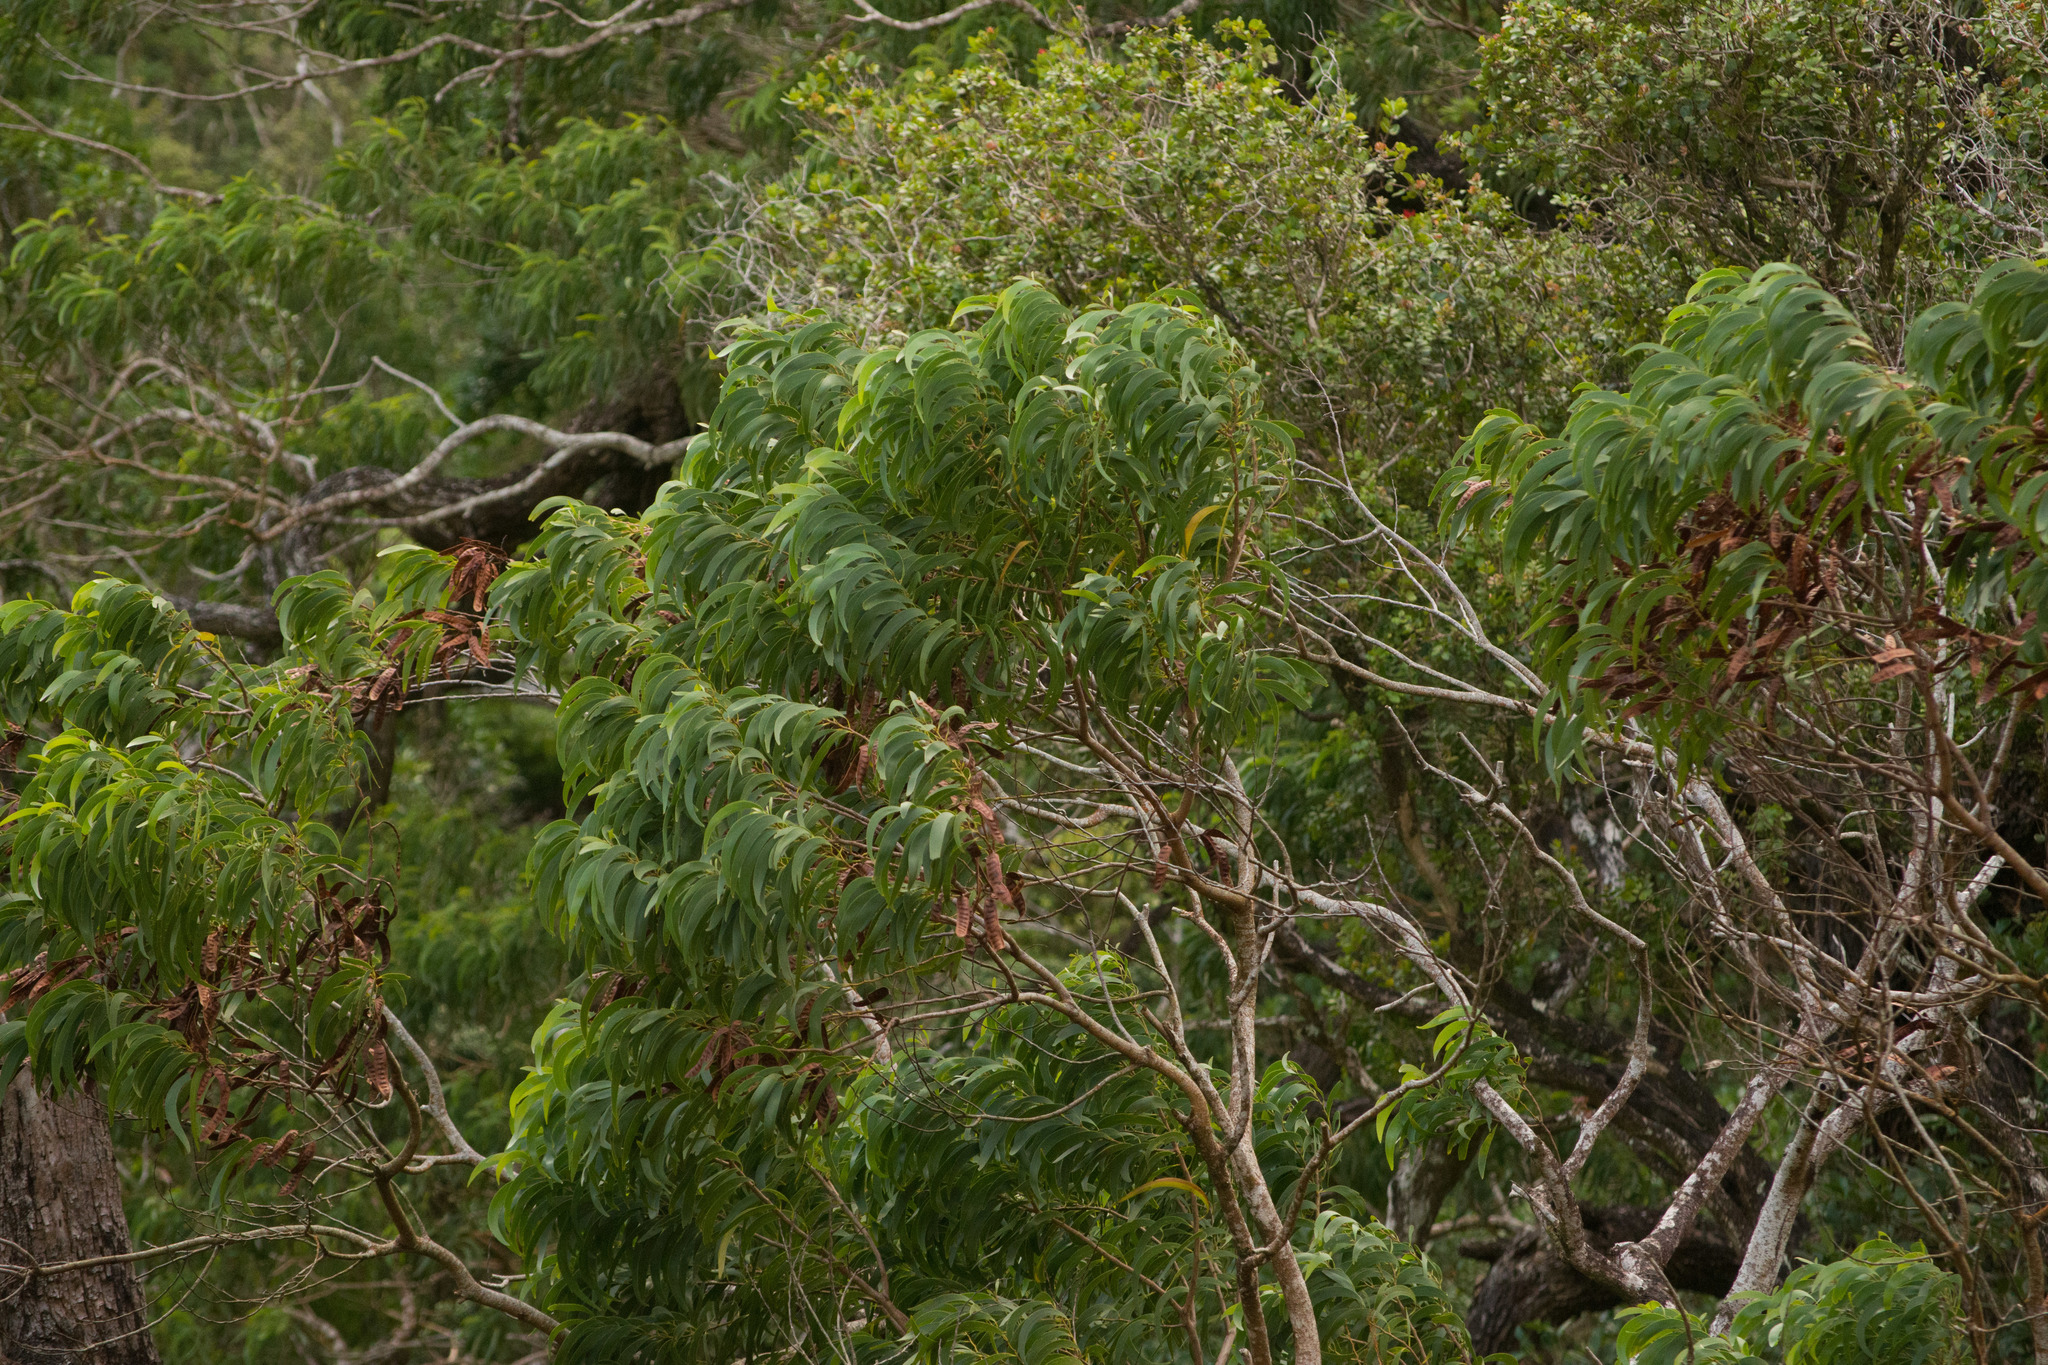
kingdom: Plantae
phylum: Tracheophyta
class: Magnoliopsida
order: Fabales
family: Fabaceae
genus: Acacia
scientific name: Acacia koa
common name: Gray koa
